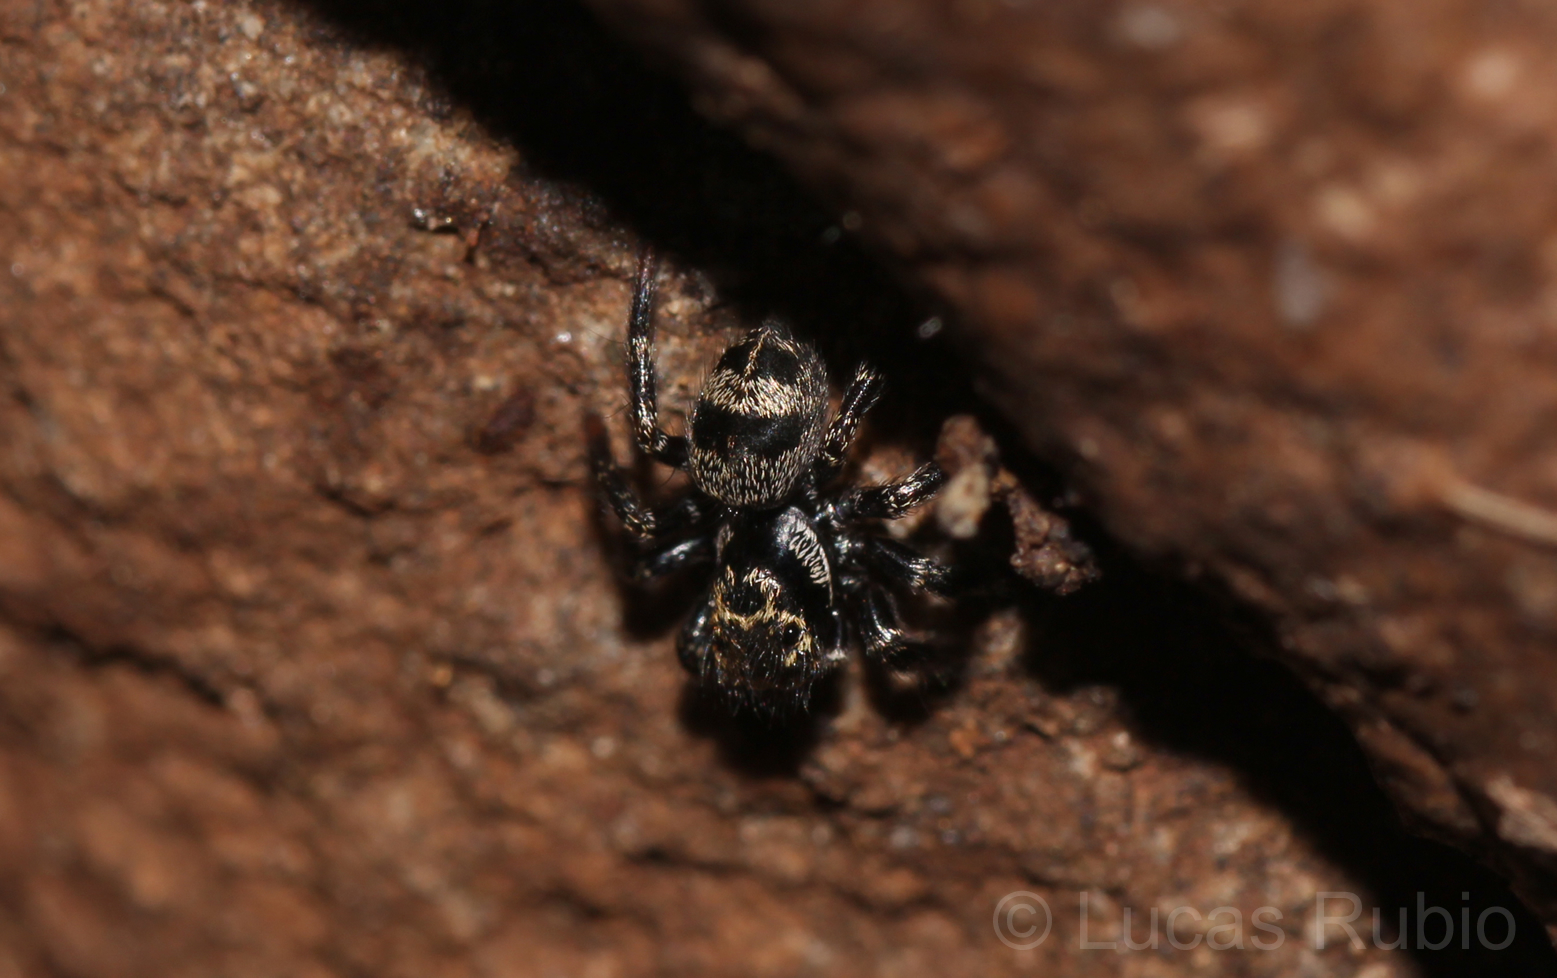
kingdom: Animalia
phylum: Arthropoda
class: Arachnida
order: Araneae
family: Salticidae
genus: Corythalia
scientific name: Corythalia conferta
